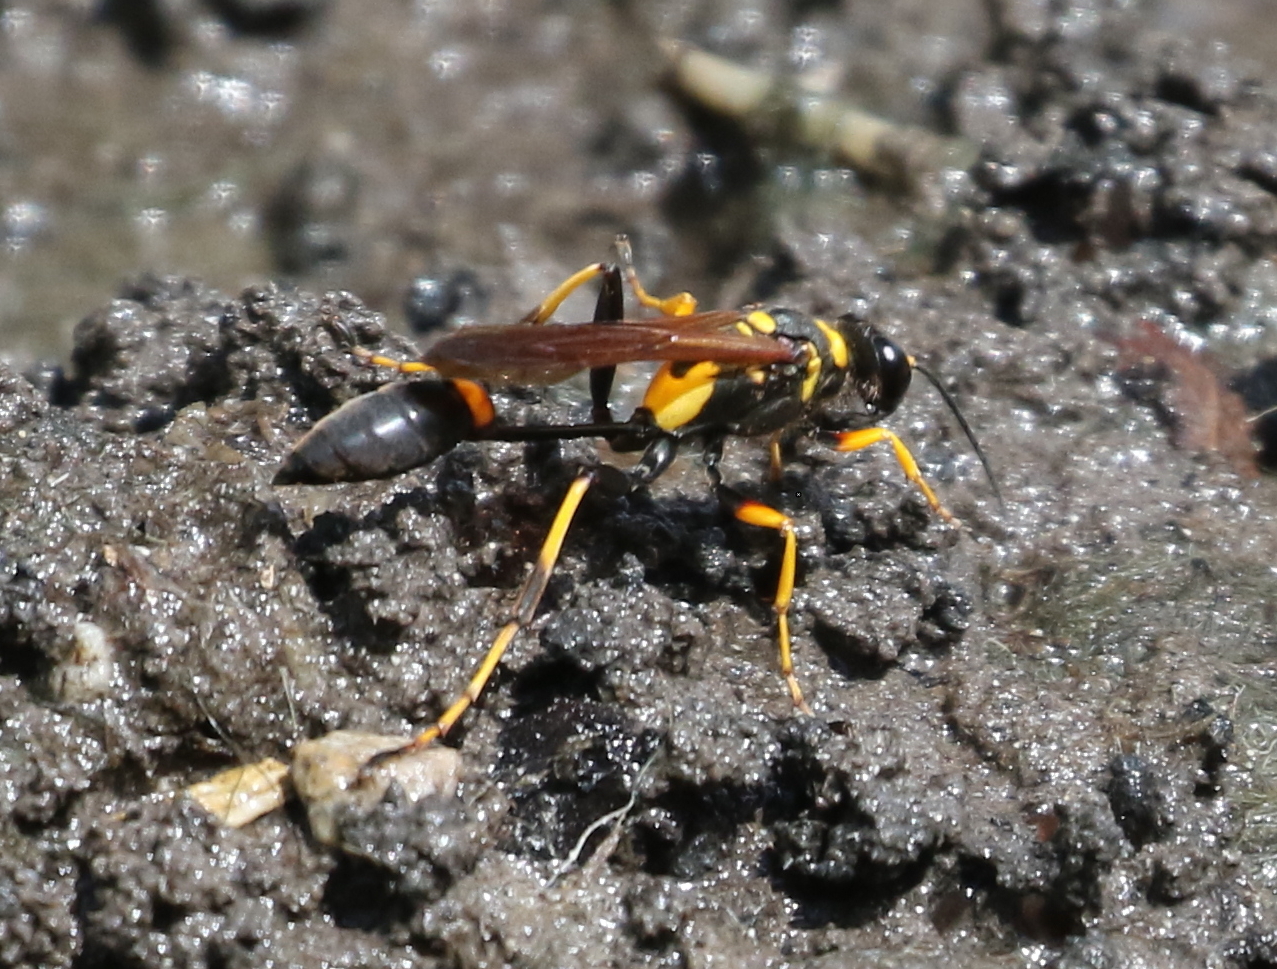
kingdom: Animalia
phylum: Arthropoda
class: Insecta
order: Hymenoptera
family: Sphecidae
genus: Sceliphron
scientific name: Sceliphron caementarium
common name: Mud dauber
